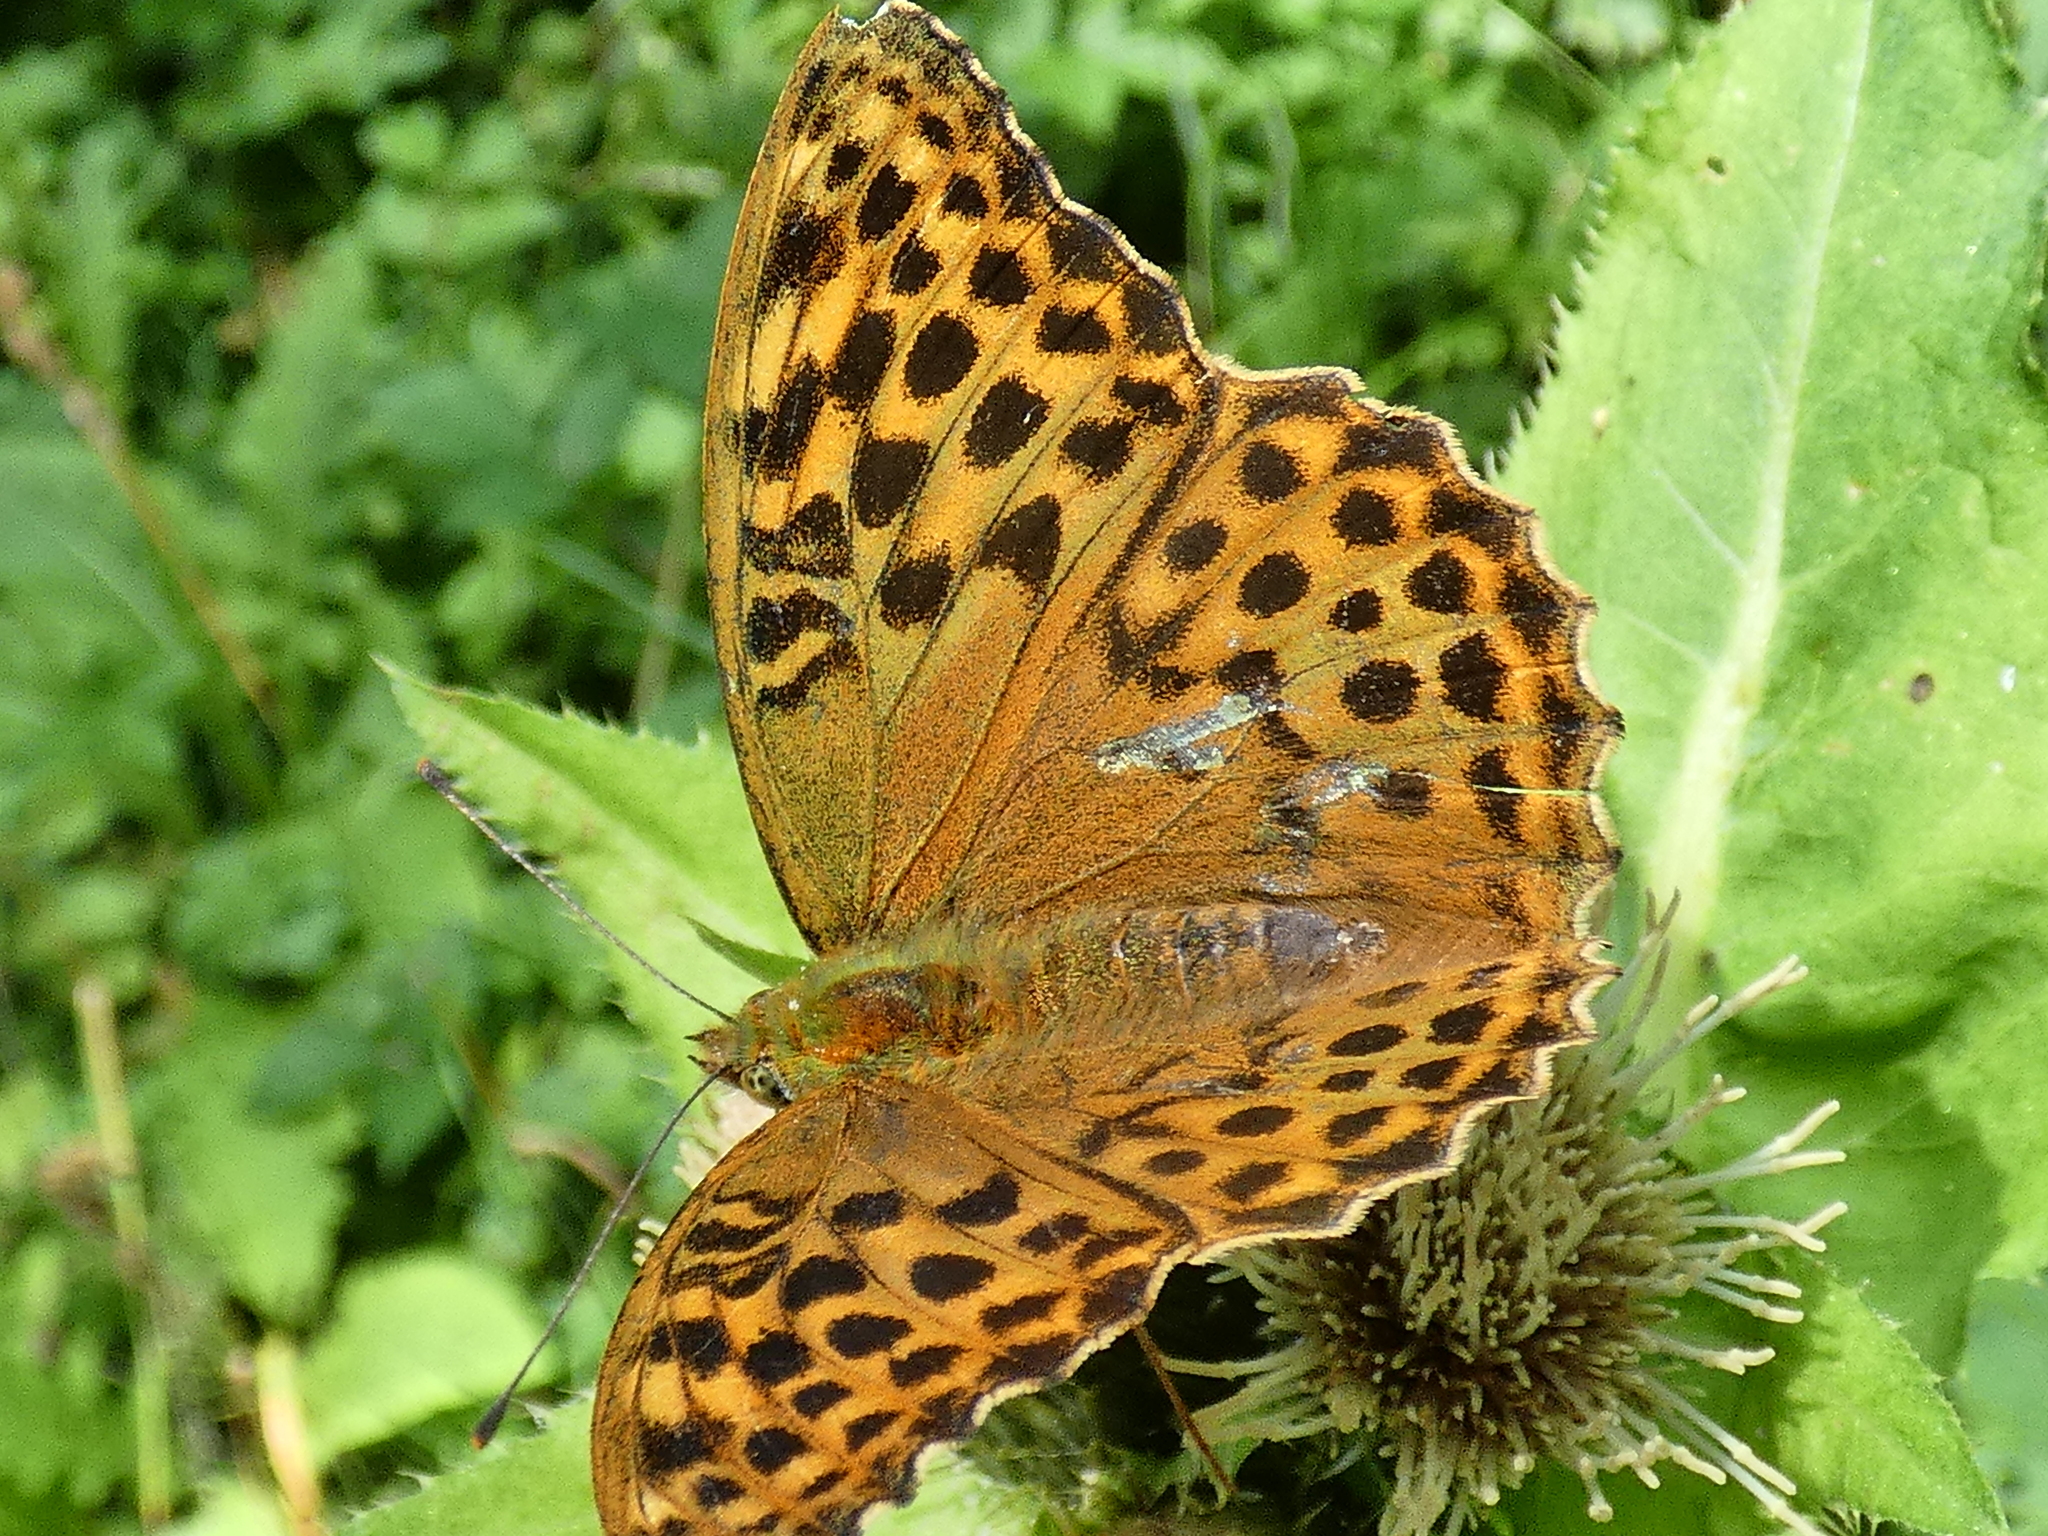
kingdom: Animalia
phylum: Arthropoda
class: Insecta
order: Lepidoptera
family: Nymphalidae
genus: Argynnis
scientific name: Argynnis paphia
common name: Silver-washed fritillary
